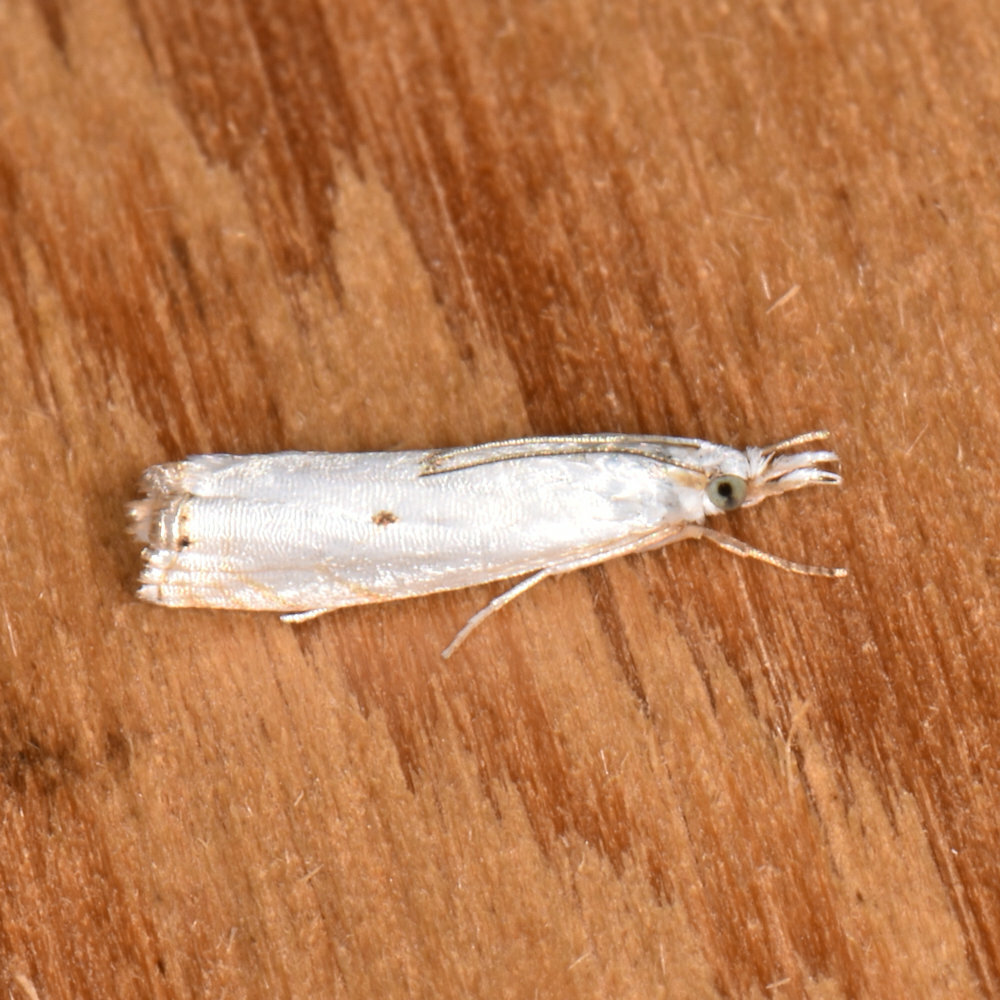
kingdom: Animalia
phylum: Arthropoda
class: Insecta
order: Lepidoptera
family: Crambidae
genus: Microcrambus
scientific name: Microcrambus biguttellus
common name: Gold-stripe grass-veneer moth
